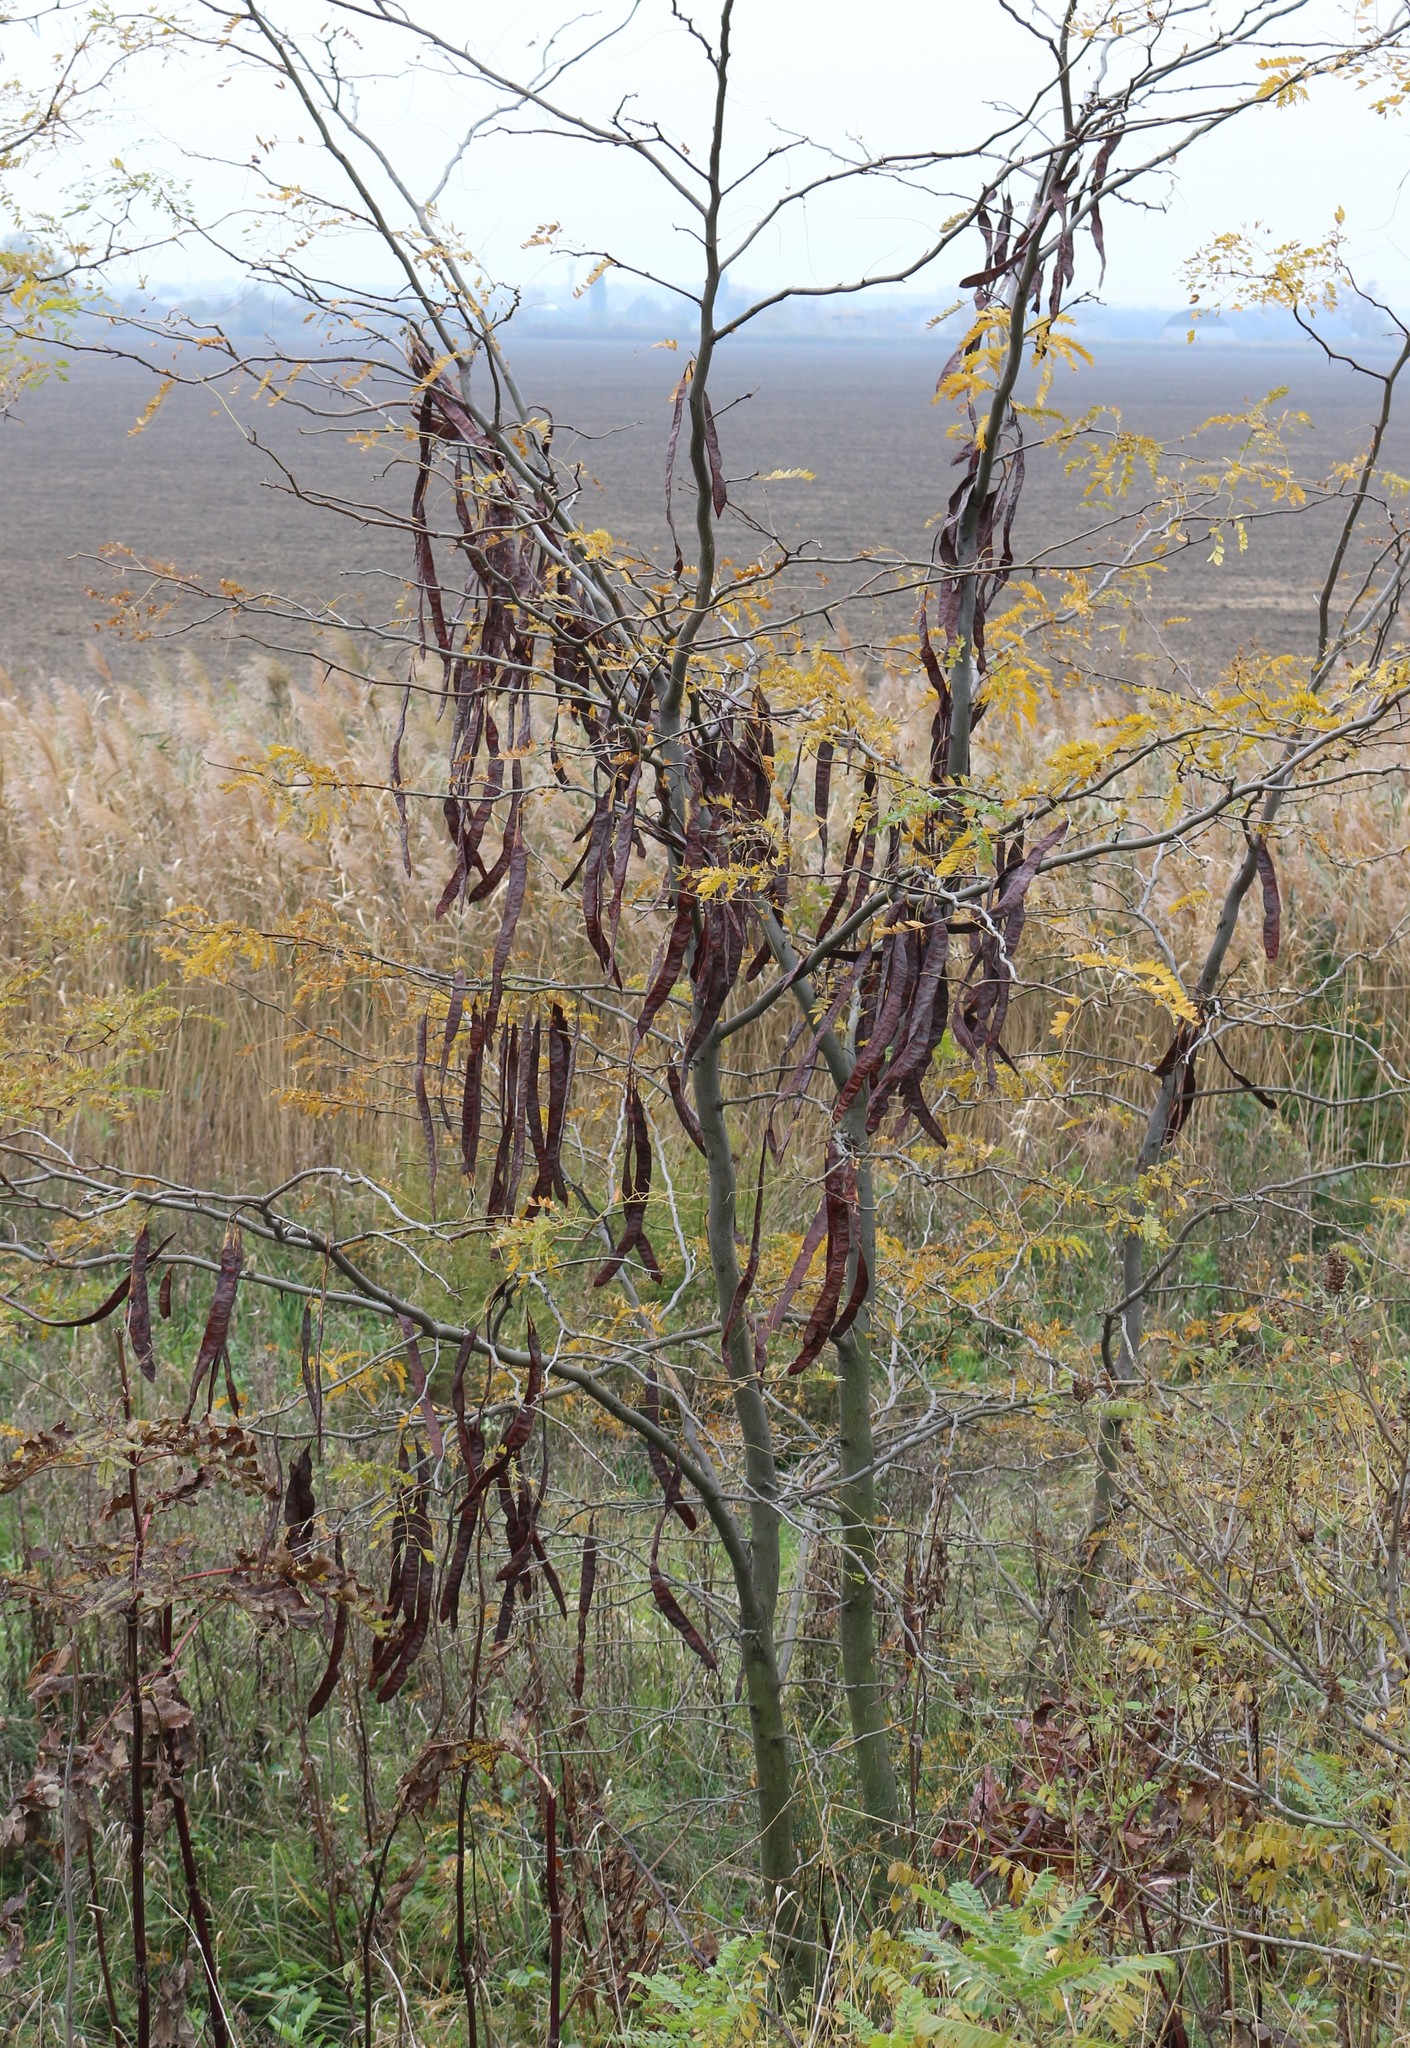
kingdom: Plantae
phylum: Tracheophyta
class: Magnoliopsida
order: Fabales
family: Fabaceae
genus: Gleditsia
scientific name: Gleditsia triacanthos
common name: Common honeylocust
